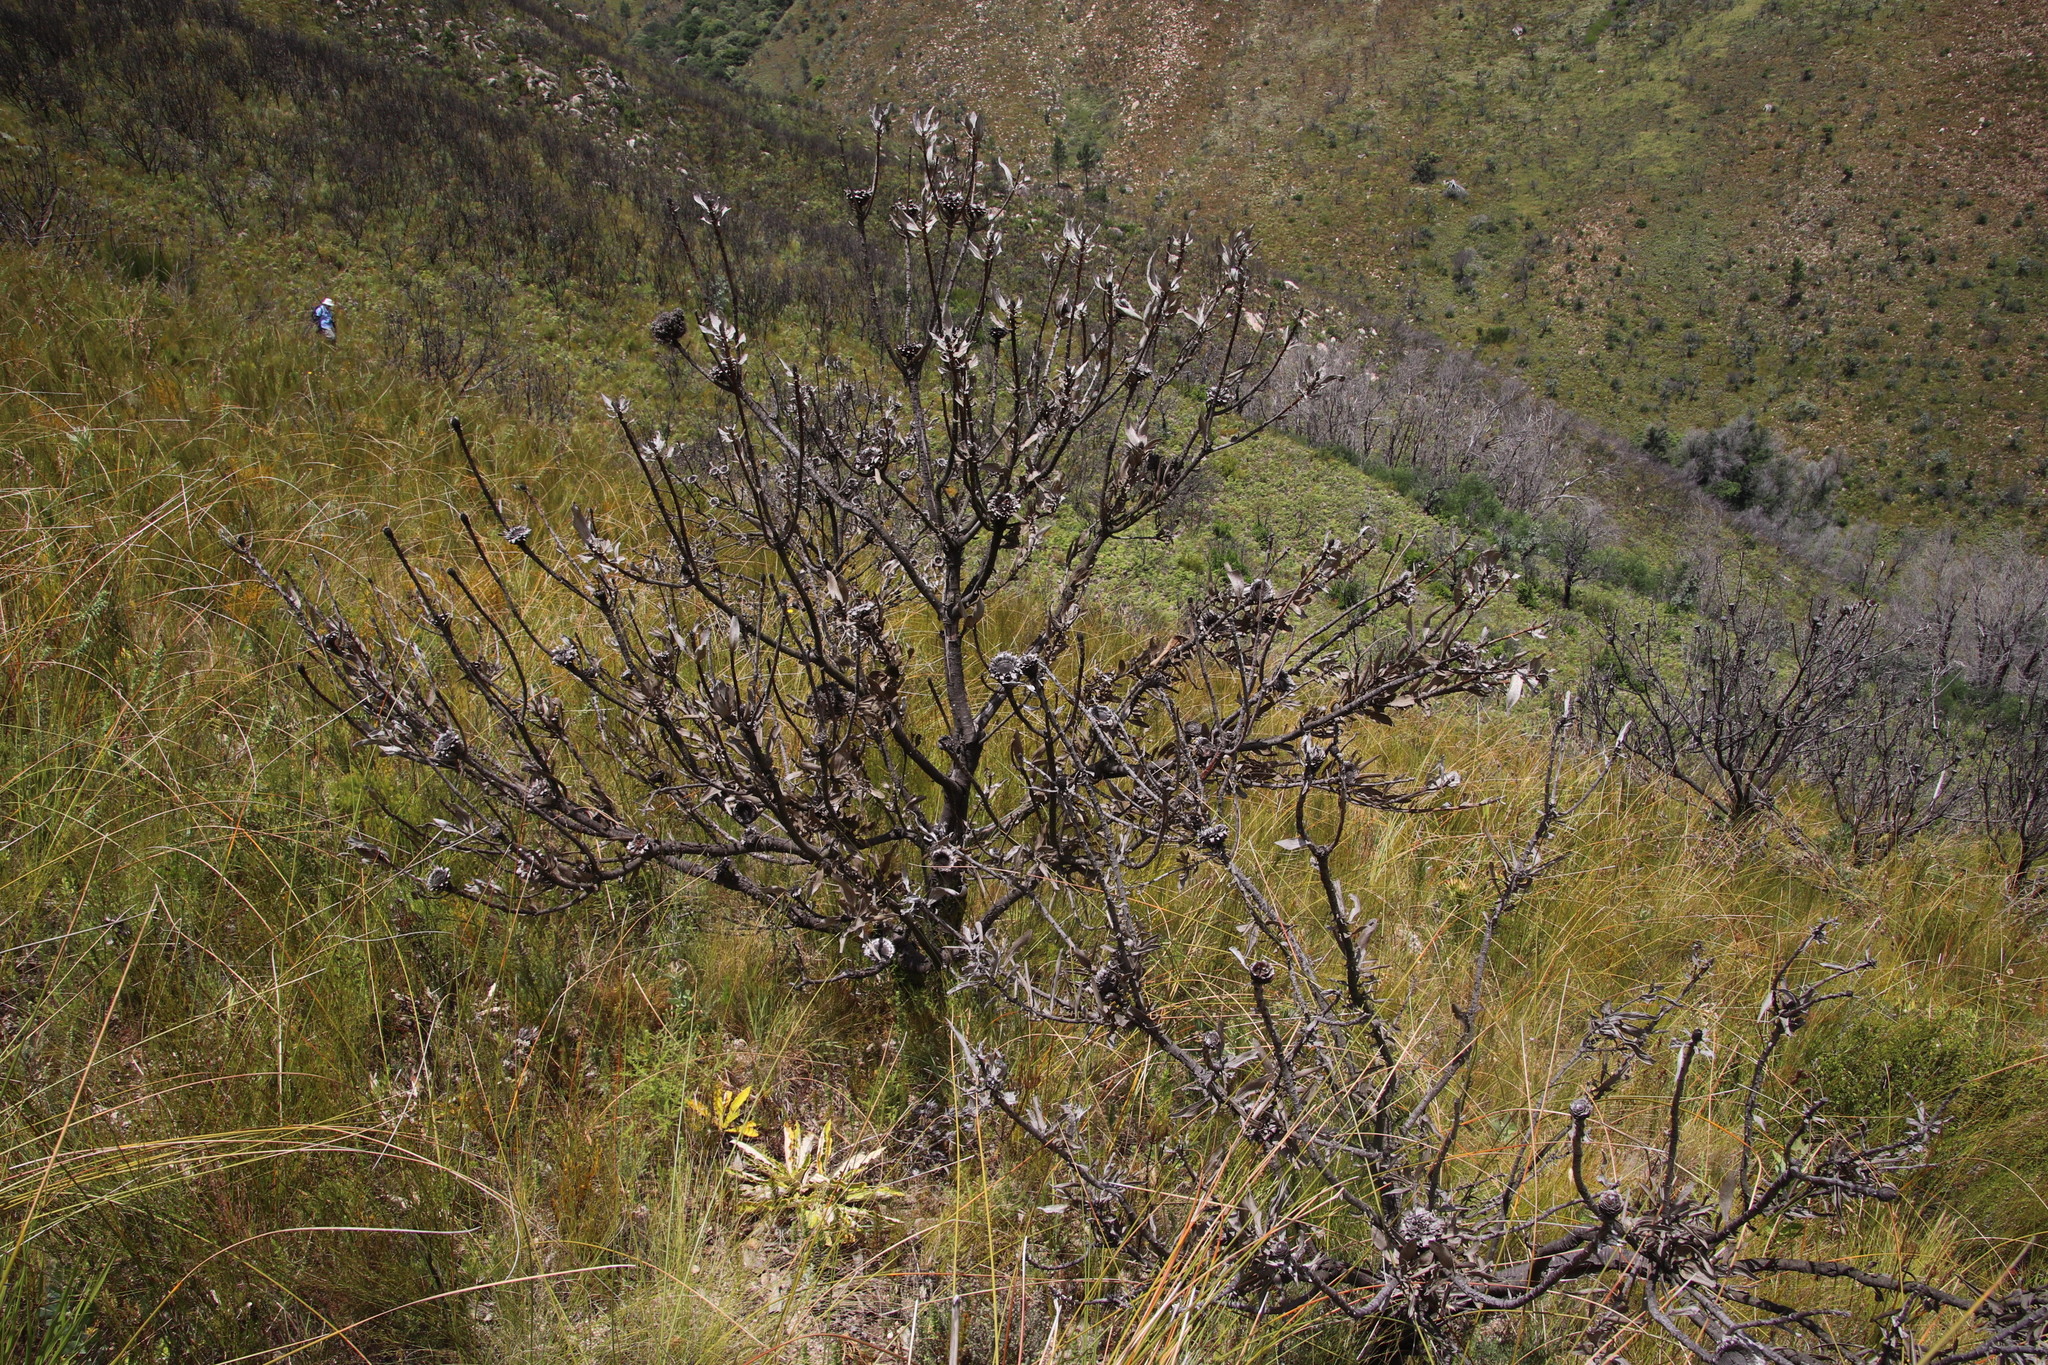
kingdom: Plantae
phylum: Tracheophyta
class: Magnoliopsida
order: Proteales
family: Proteaceae
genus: Protea
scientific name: Protea laurifolia
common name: Grey-leaf sugarbsh
